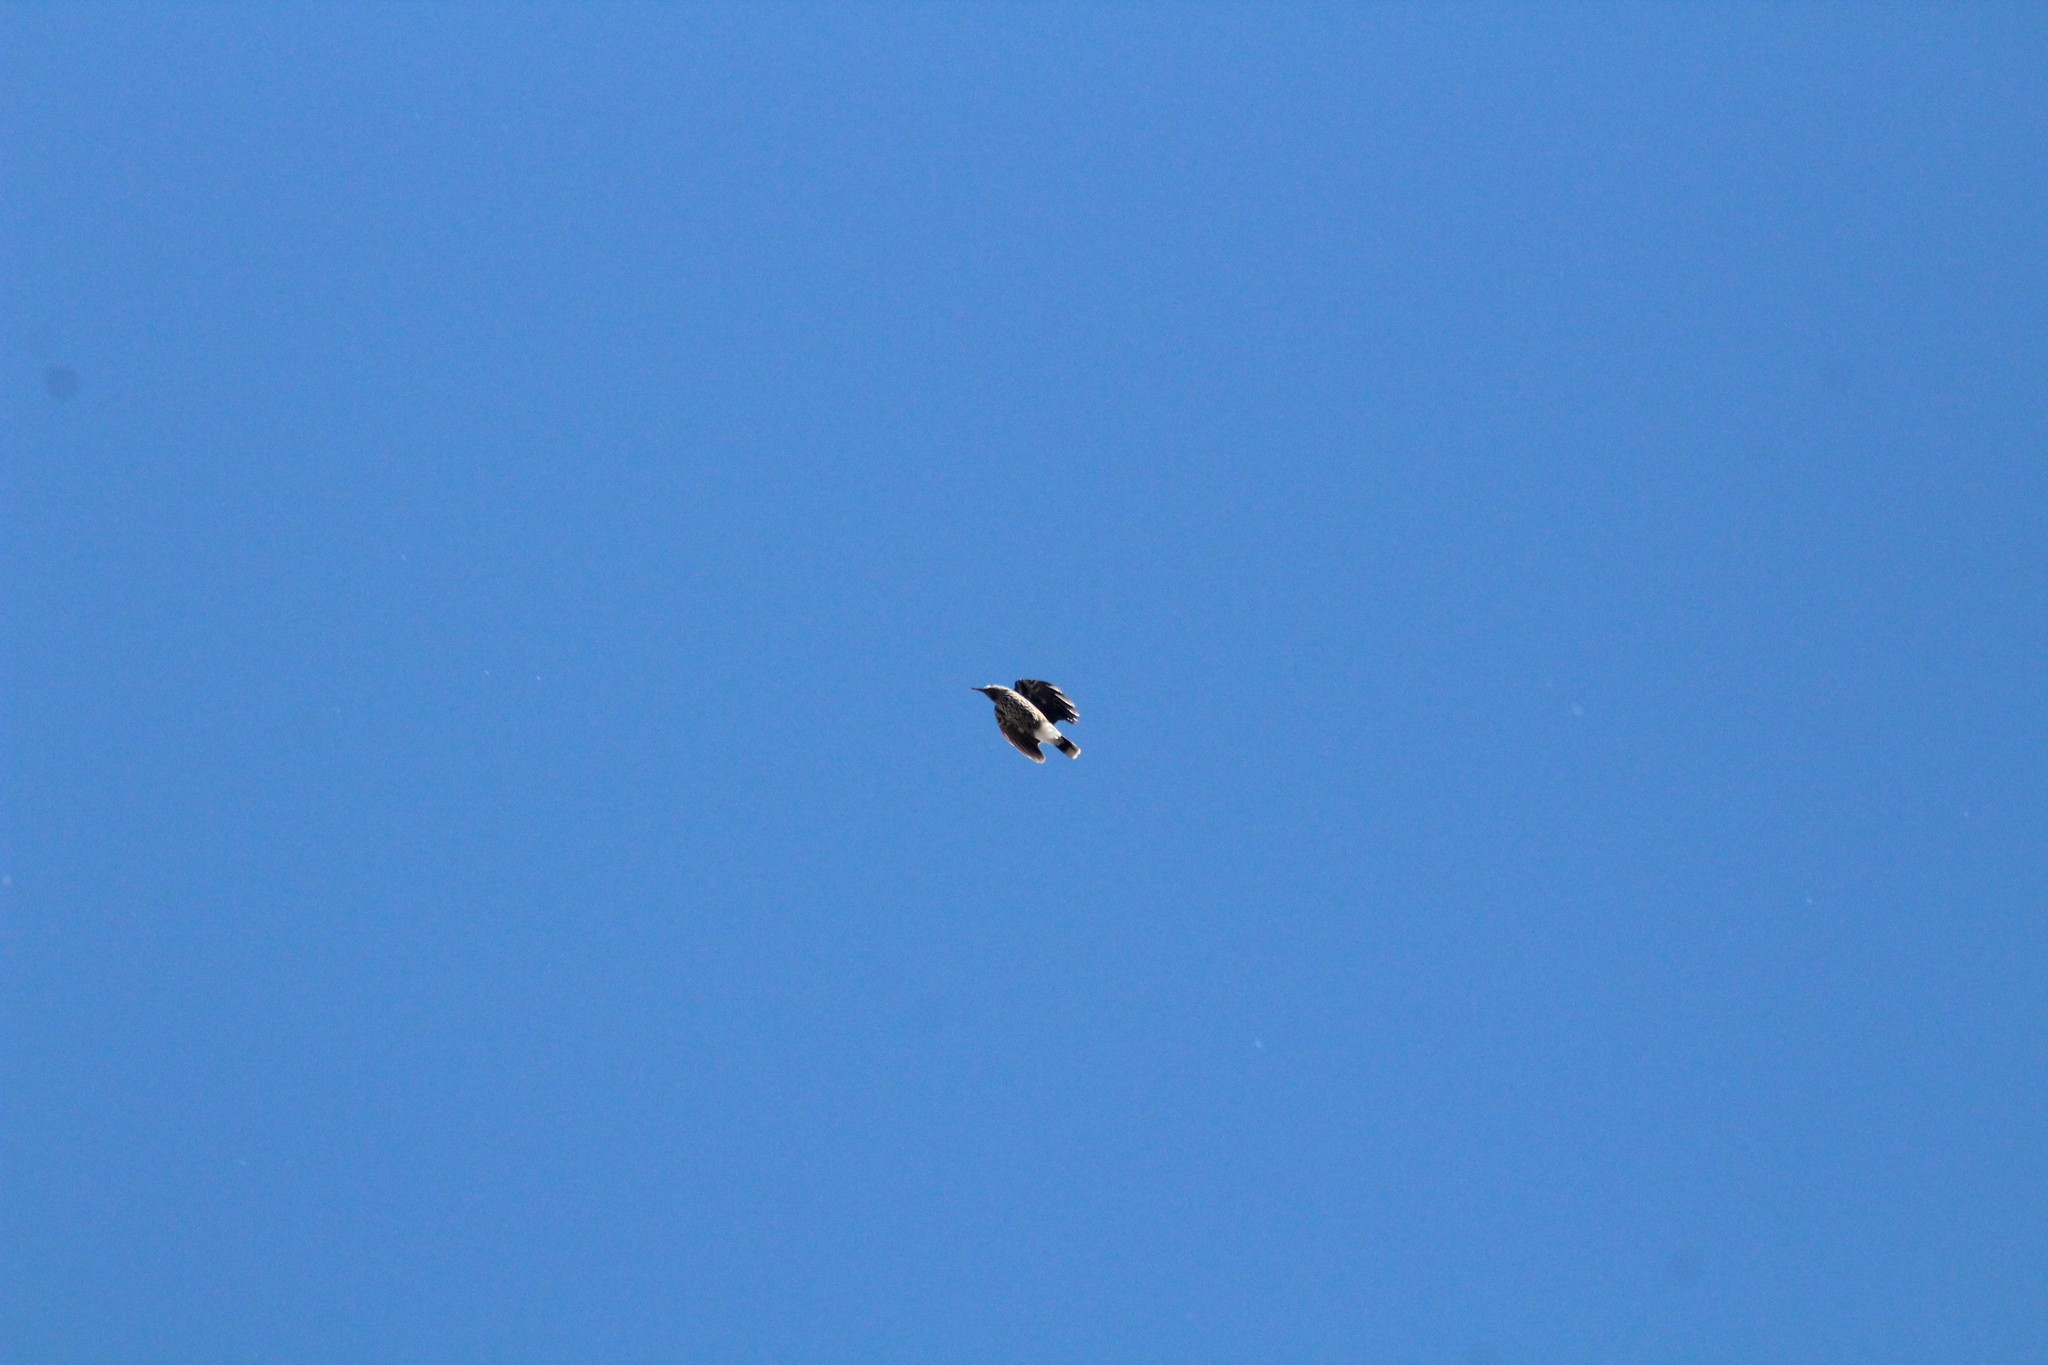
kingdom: Animalia
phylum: Chordata
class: Aves
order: Passeriformes
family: Corvidae
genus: Nucifraga
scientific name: Nucifraga caryocatactes
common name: Spotted nutcracker
